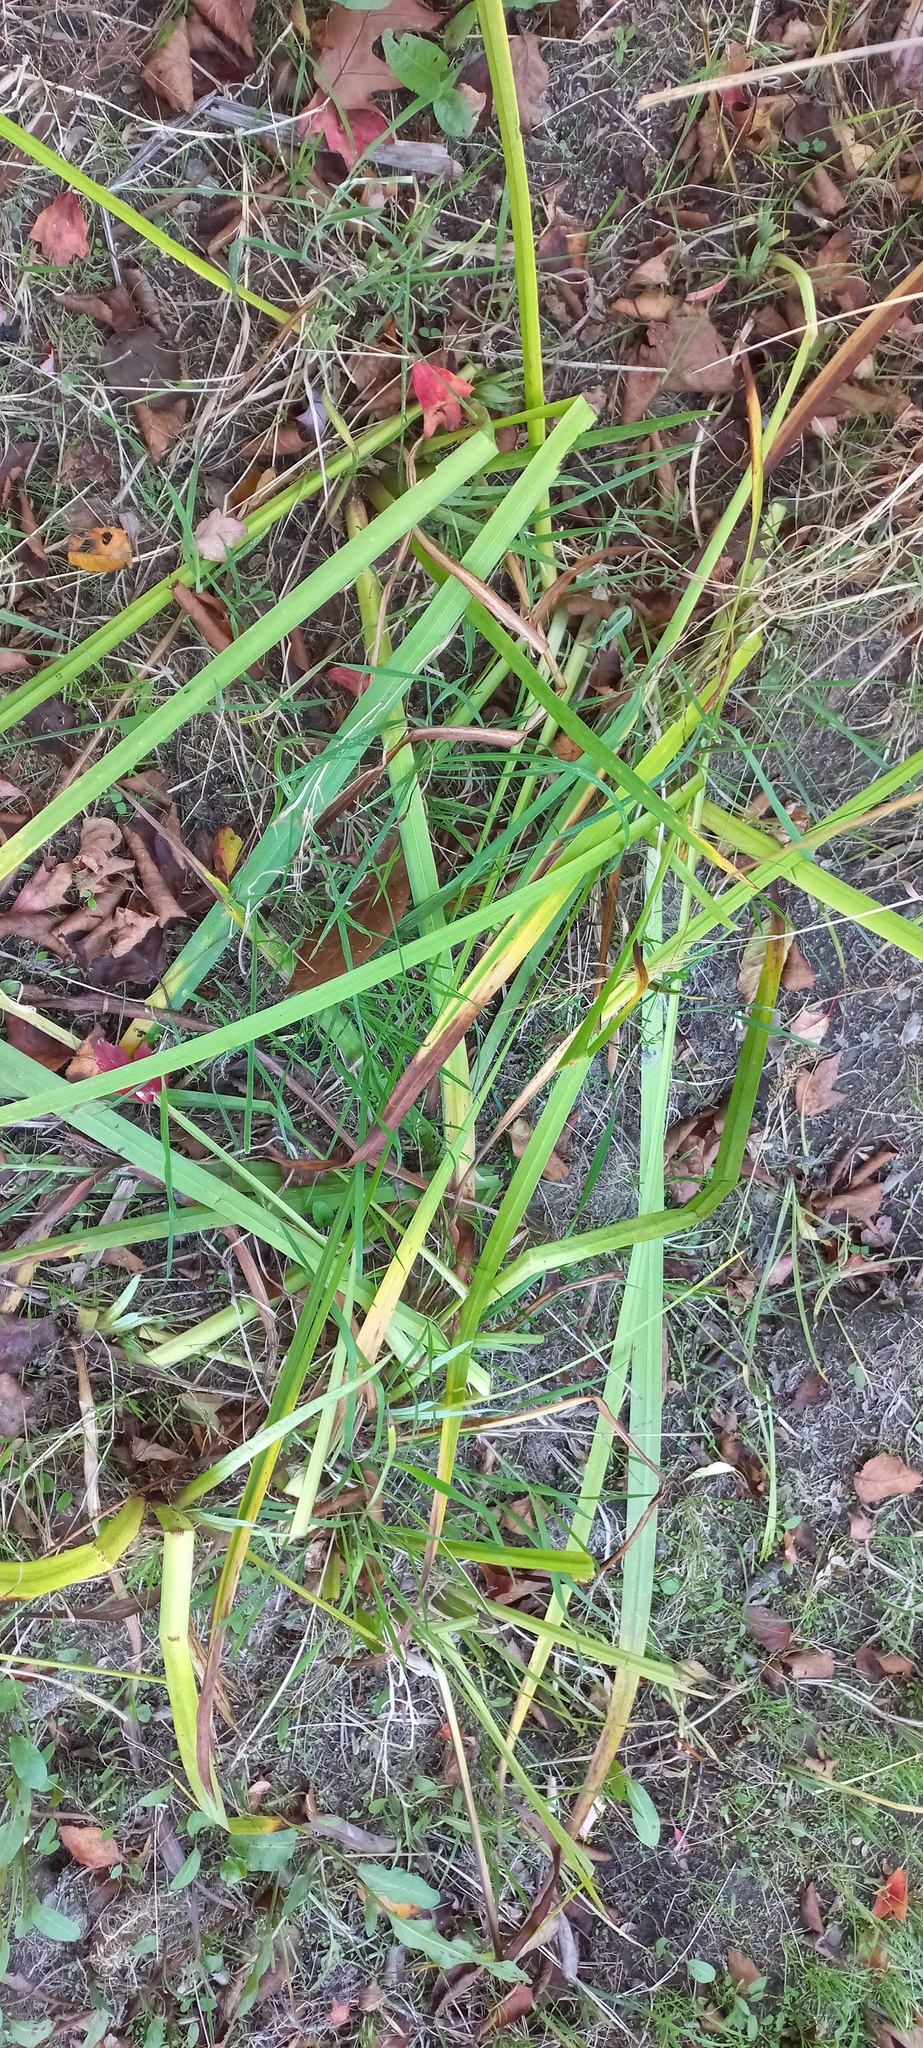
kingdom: Plantae
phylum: Tracheophyta
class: Liliopsida
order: Asparagales
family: Iridaceae
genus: Iris
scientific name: Iris pseudacorus
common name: Yellow flag
